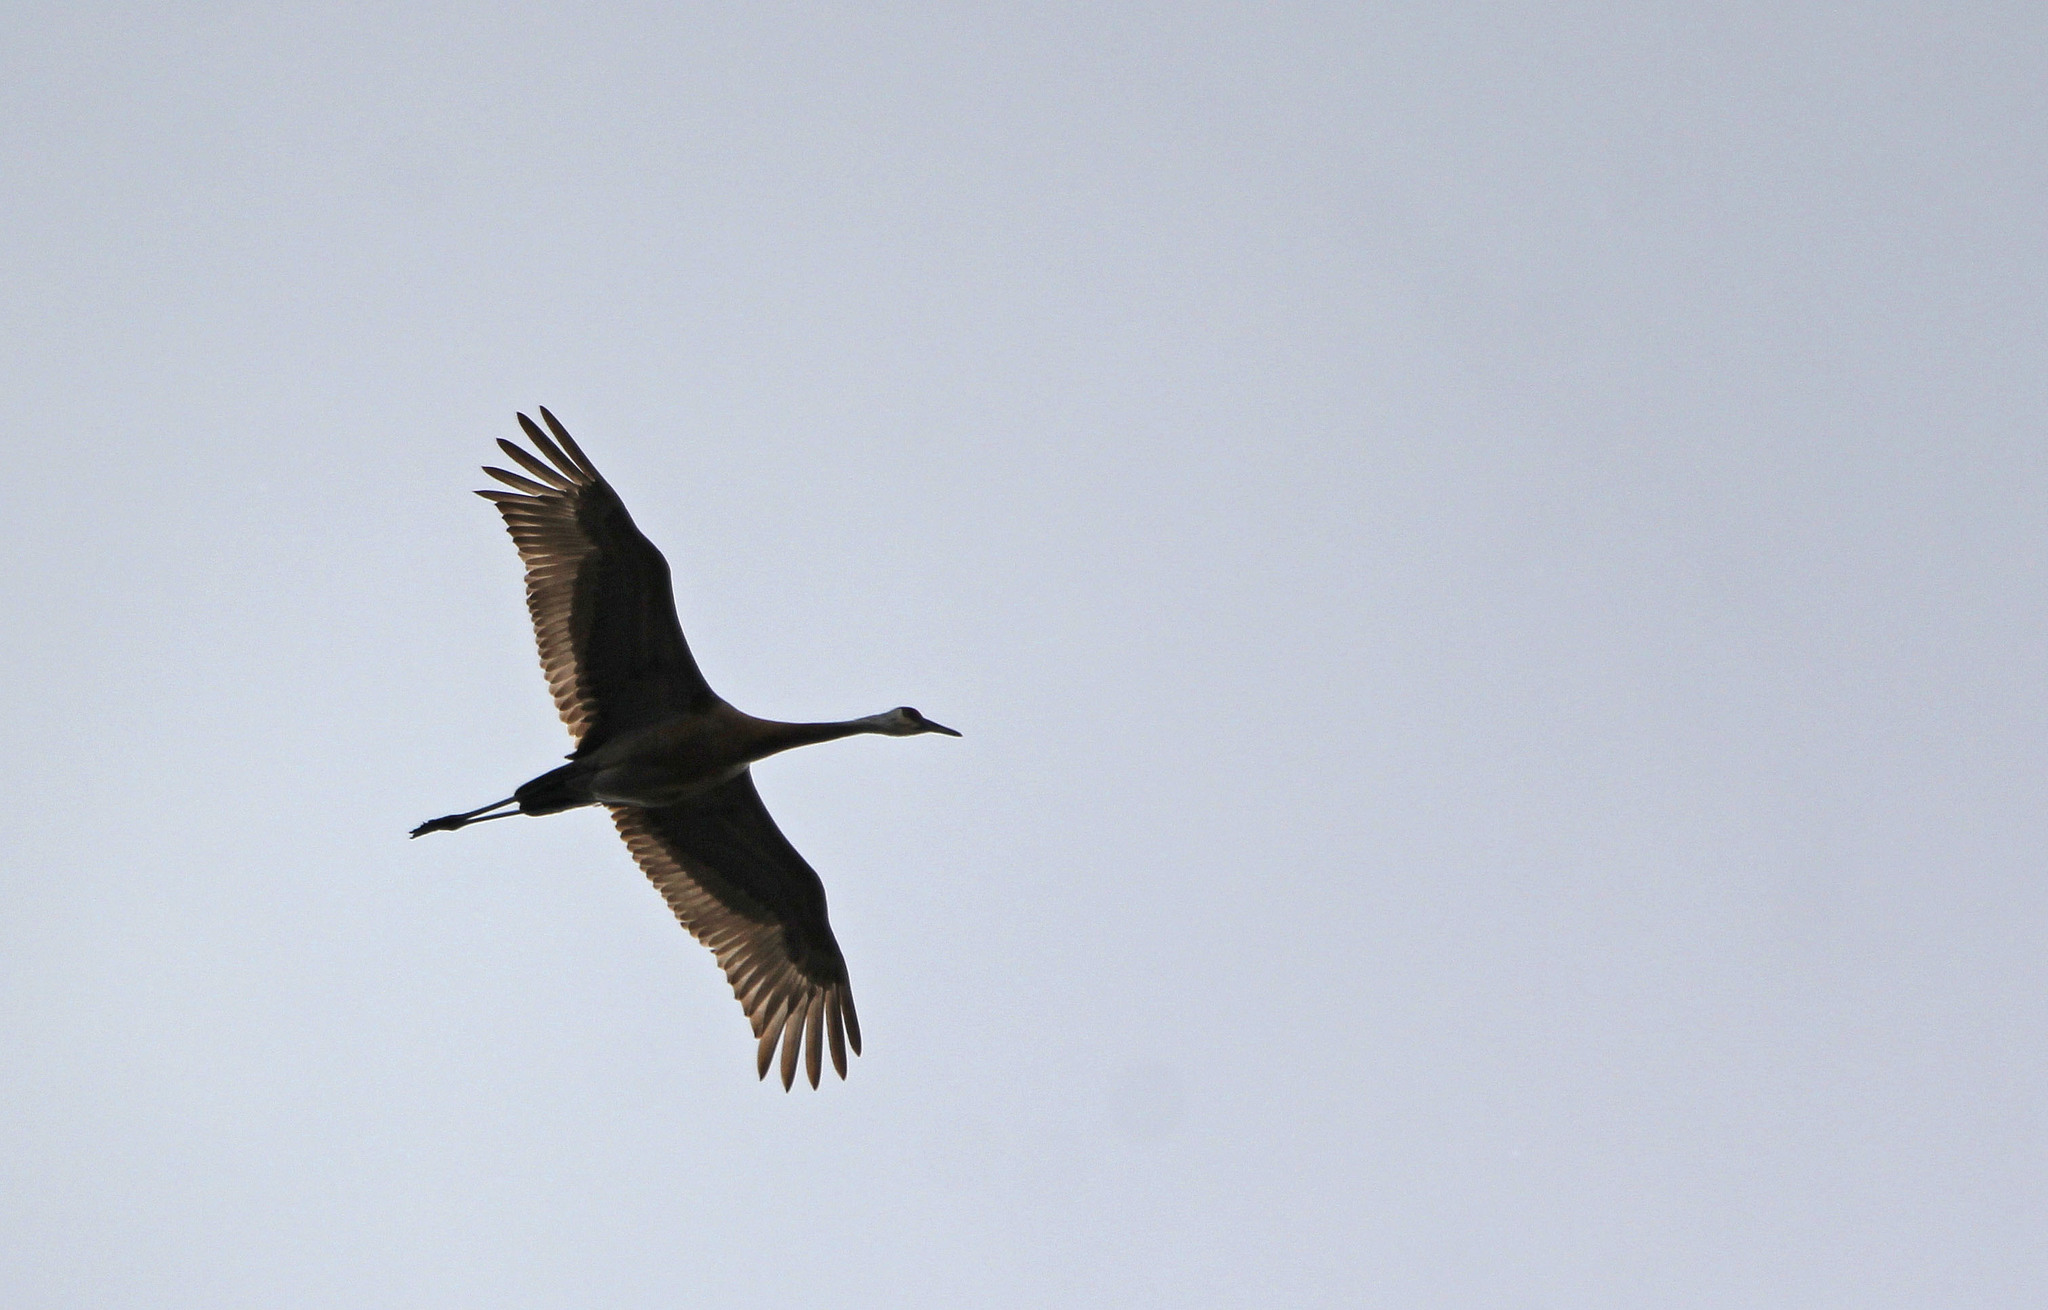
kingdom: Animalia
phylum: Chordata
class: Aves
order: Gruiformes
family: Gruidae
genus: Grus
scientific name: Grus canadensis
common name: Sandhill crane
